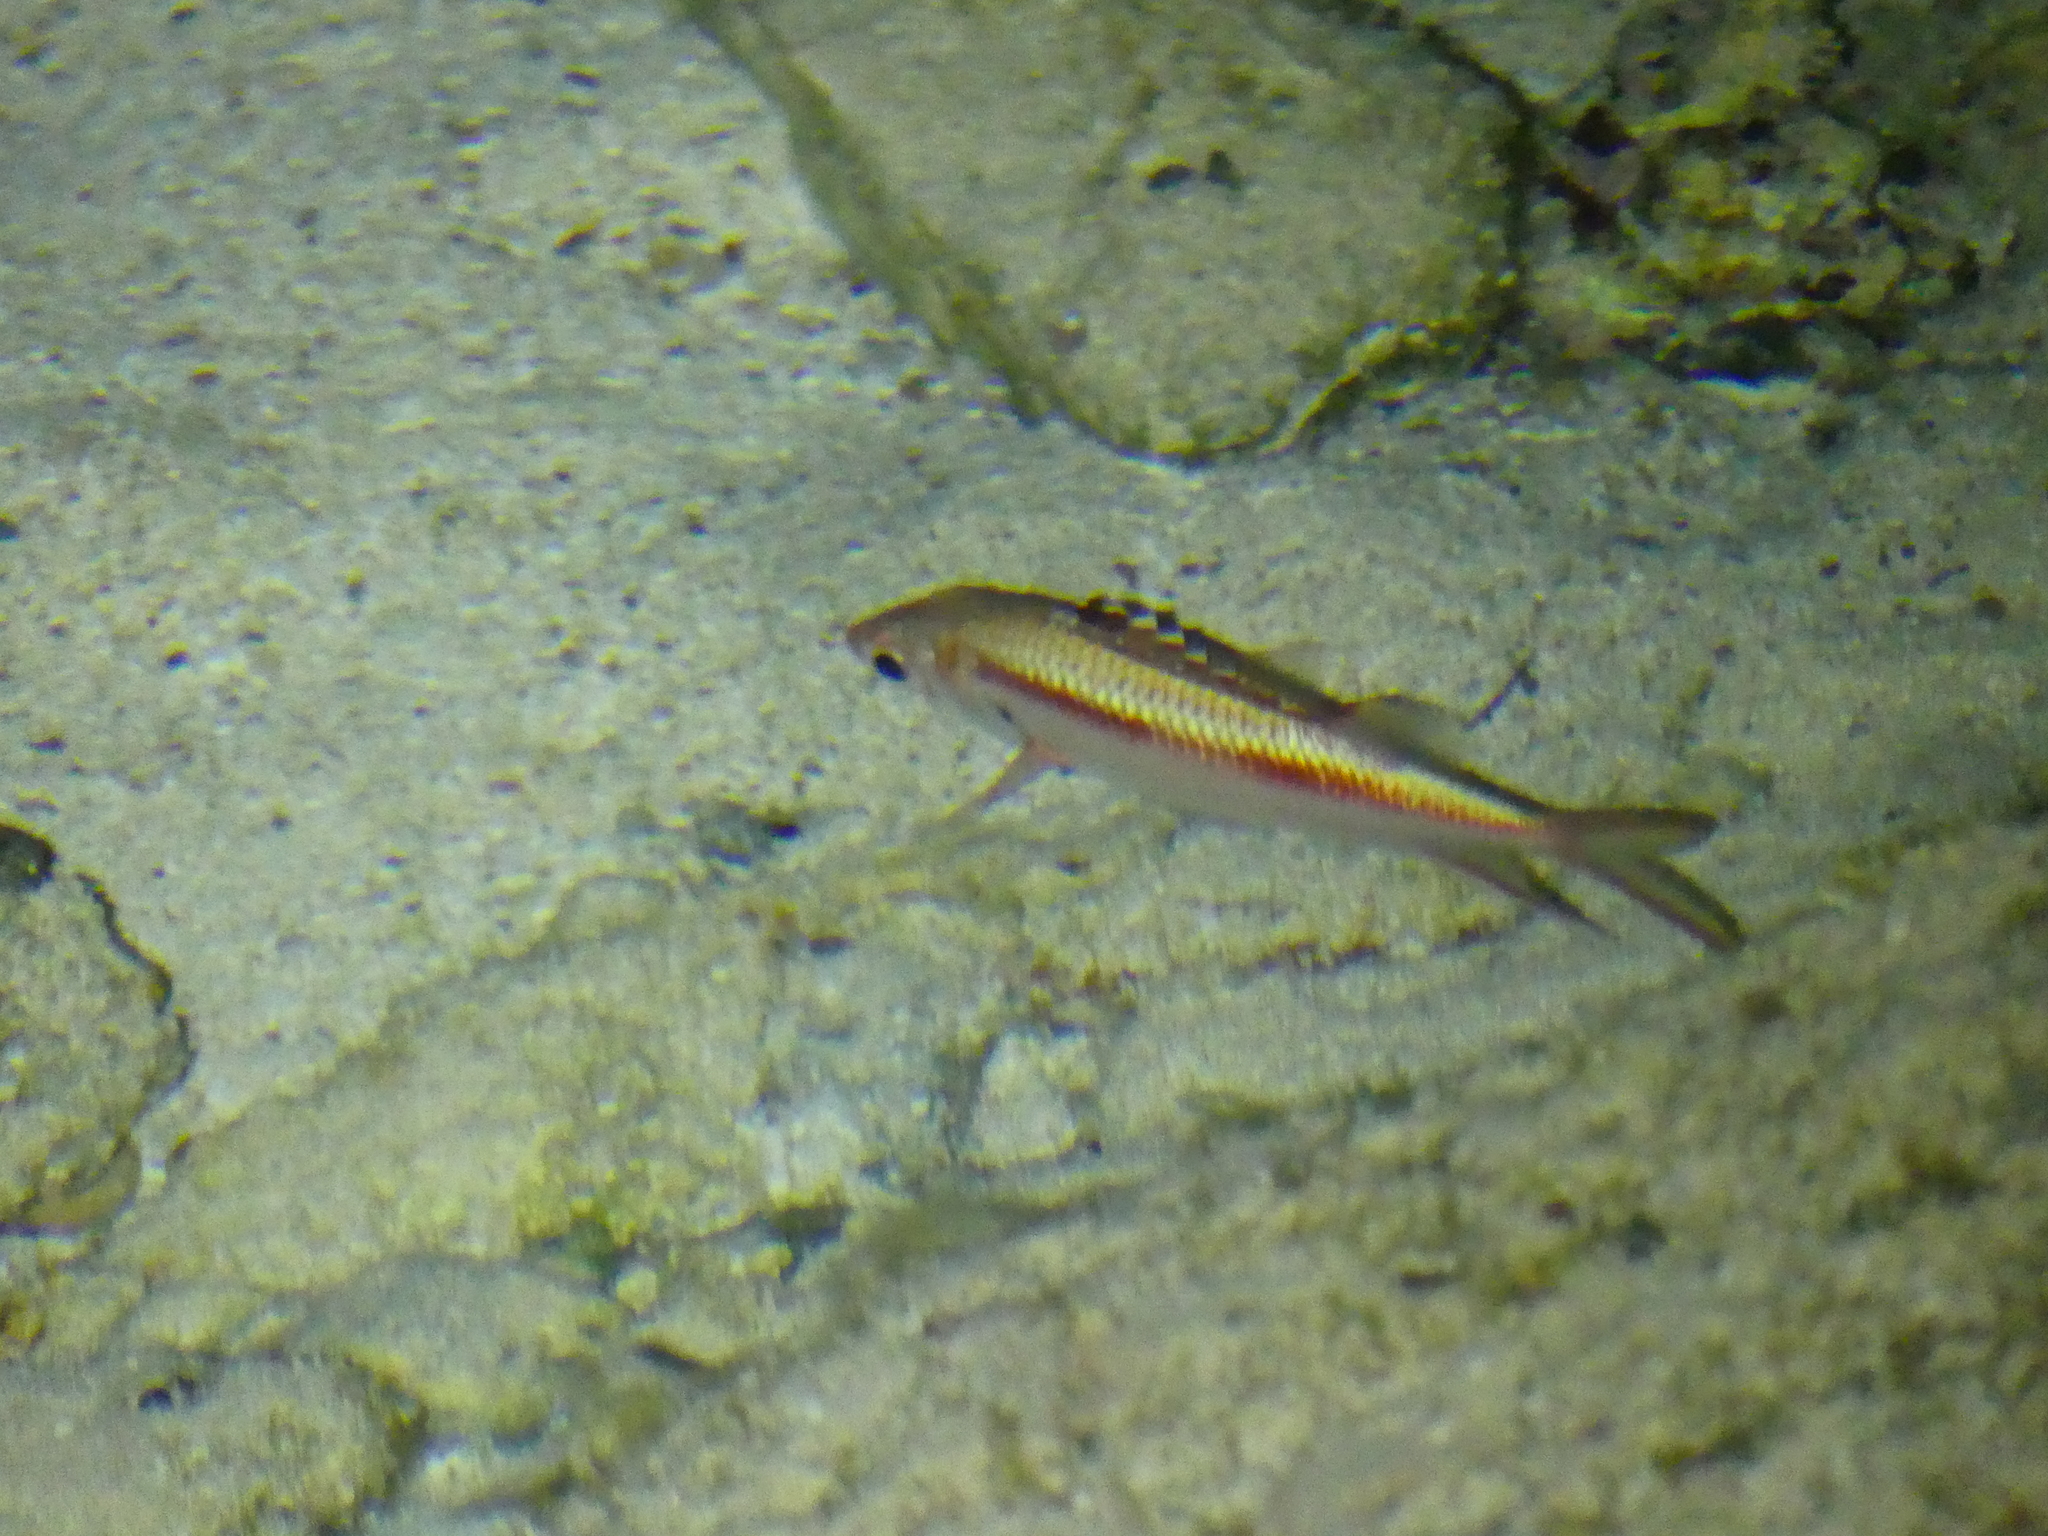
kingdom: Animalia
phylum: Chordata
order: Beryciformes
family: Holocentridae
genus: Neoniphon
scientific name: Neoniphon sammara
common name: Sammara squirrelfish
